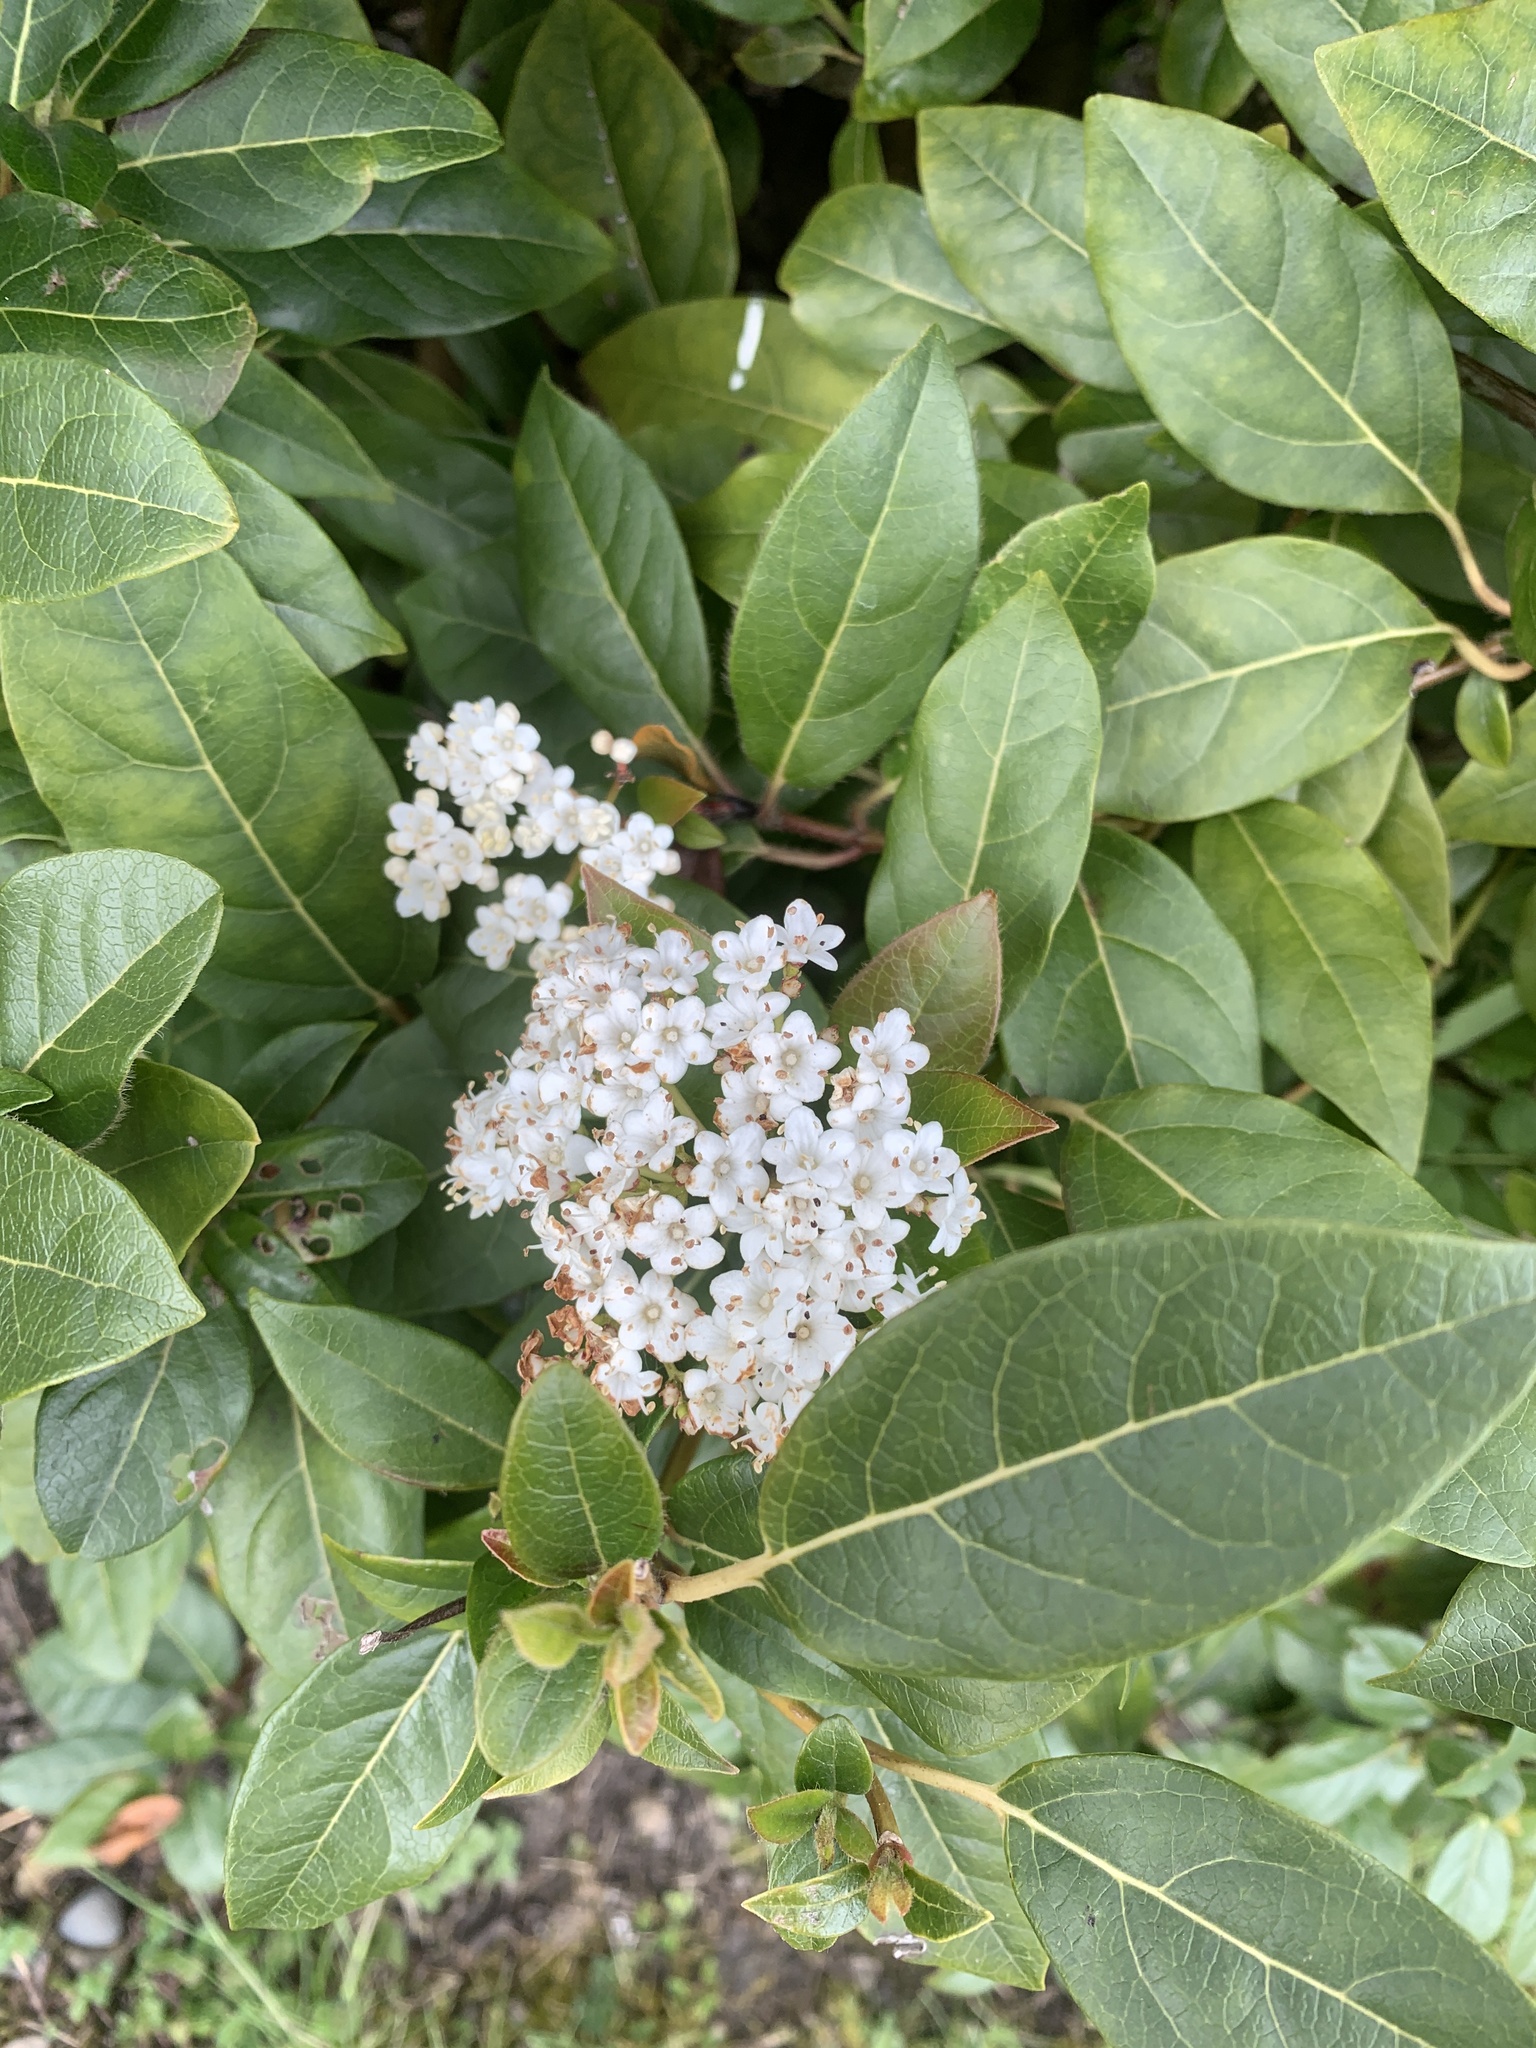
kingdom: Plantae
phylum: Tracheophyta
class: Magnoliopsida
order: Dipsacales
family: Viburnaceae
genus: Viburnum
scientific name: Viburnum tinus
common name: Laurustinus
